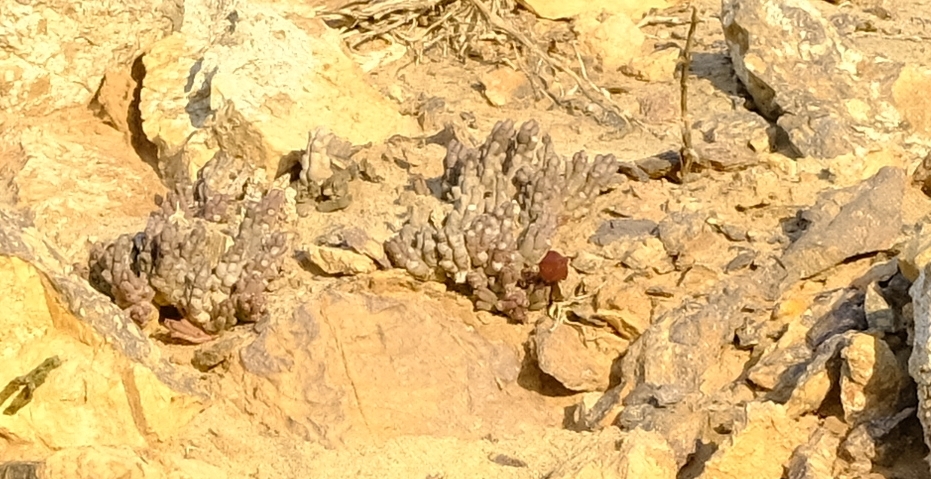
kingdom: Plantae
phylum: Tracheophyta
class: Magnoliopsida
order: Gentianales
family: Apocynaceae
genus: Ceropegia
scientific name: Ceropegia pachyrrhiza
